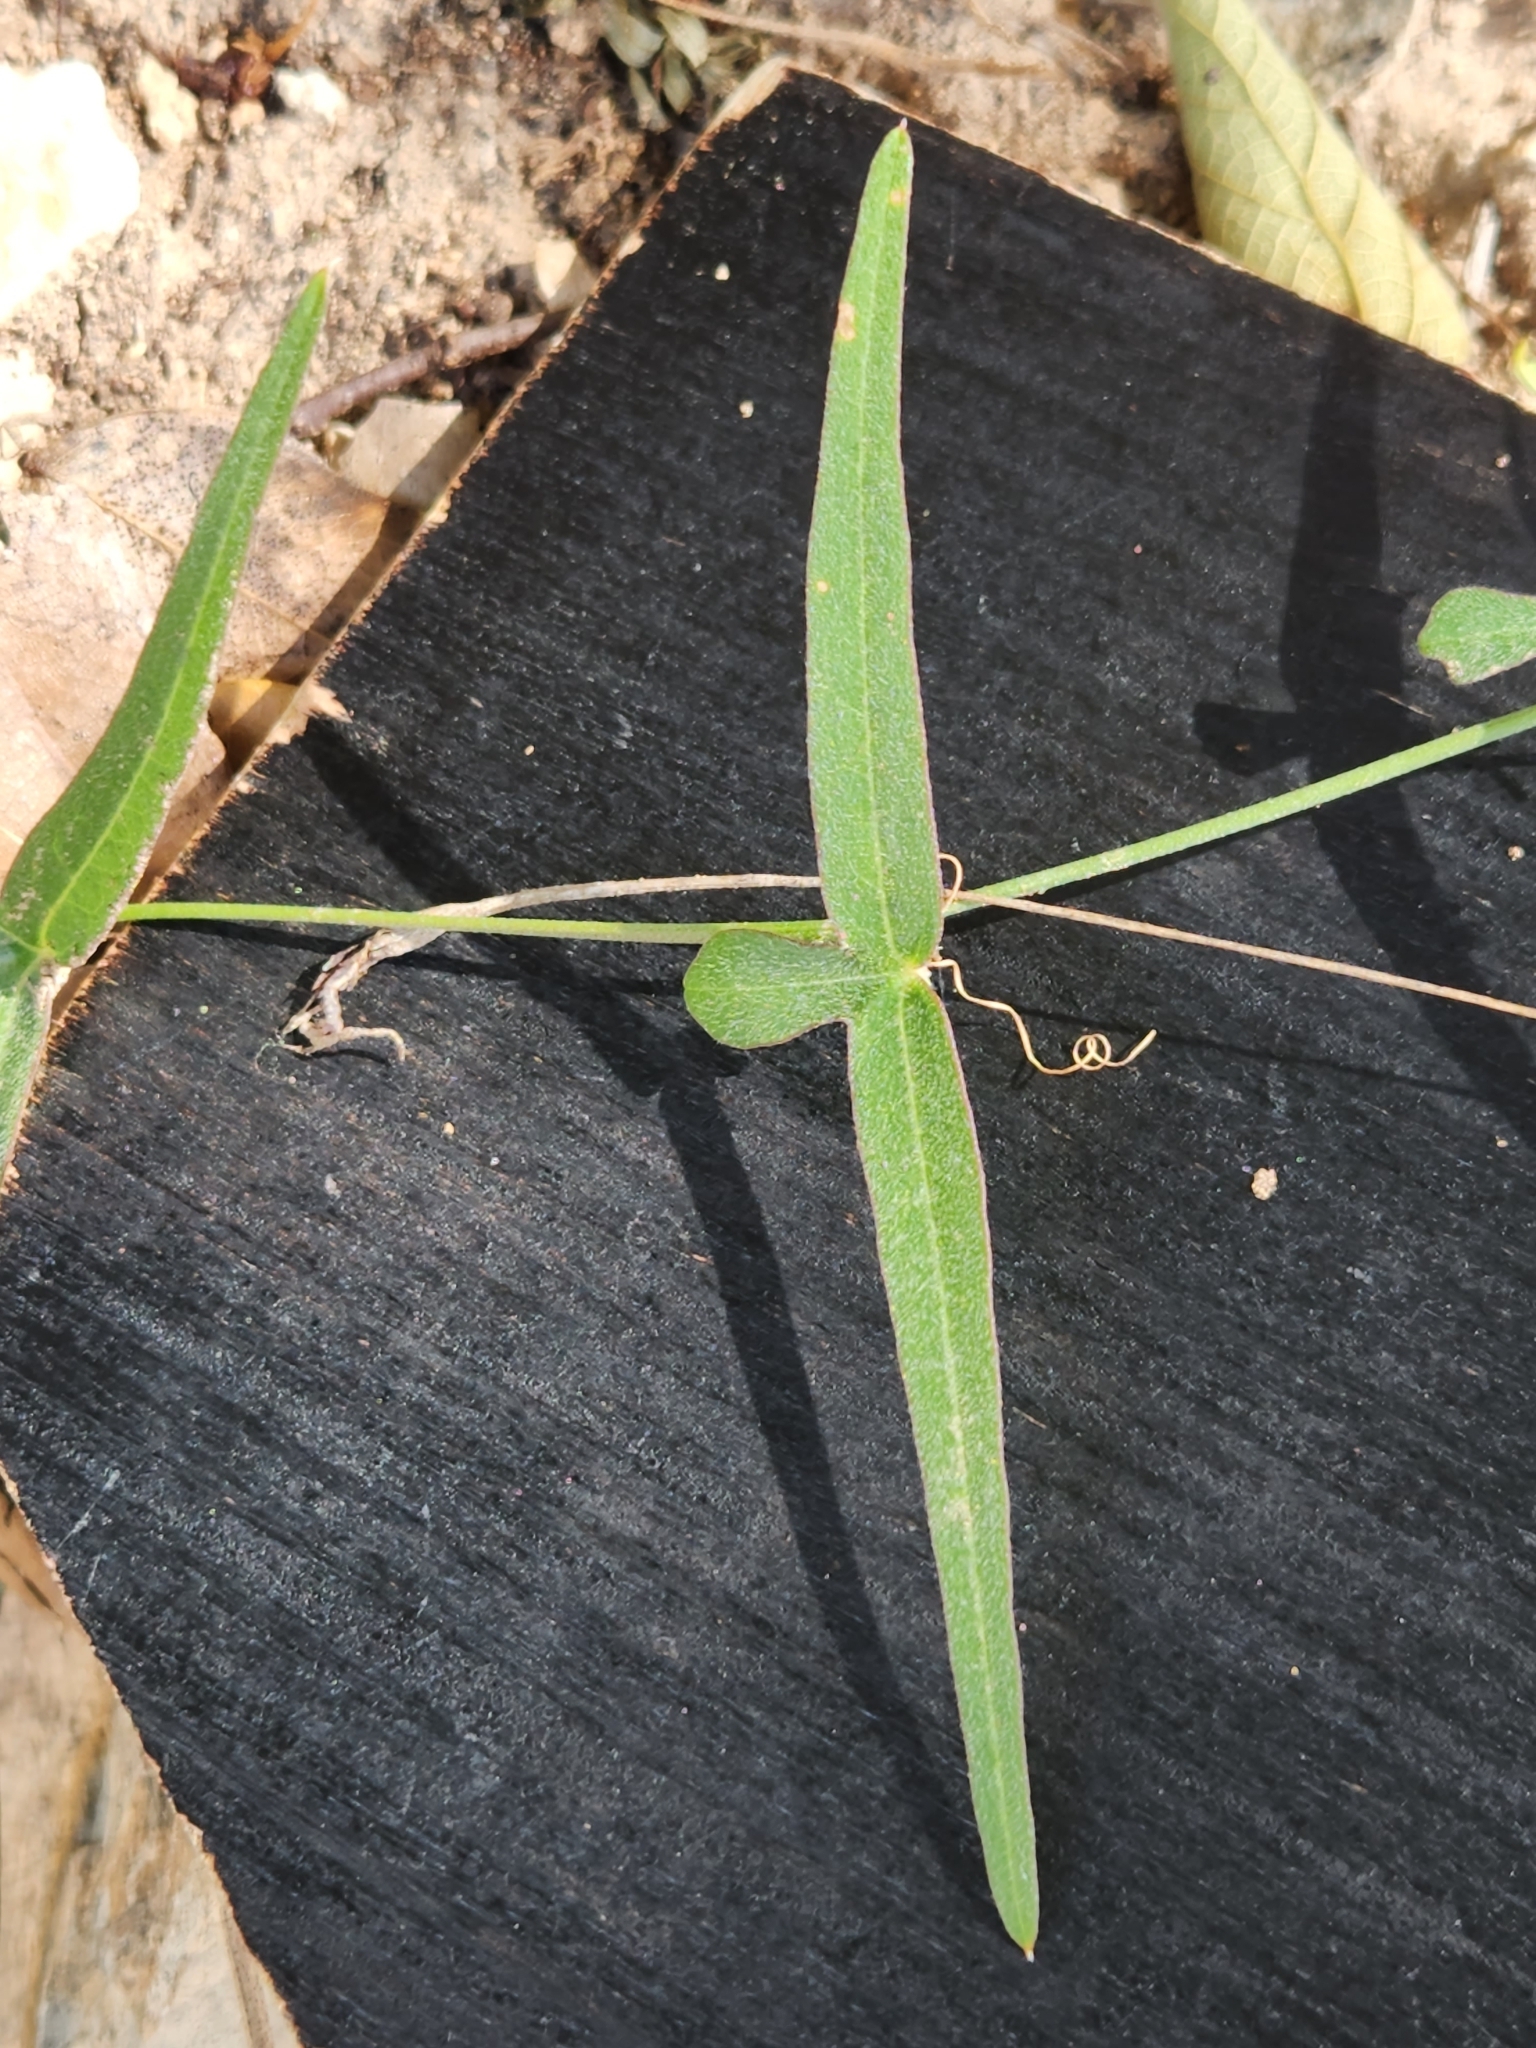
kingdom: Plantae
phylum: Tracheophyta
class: Magnoliopsida
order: Malpighiales
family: Passifloraceae
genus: Passiflora
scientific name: Passiflora tenuiloba
